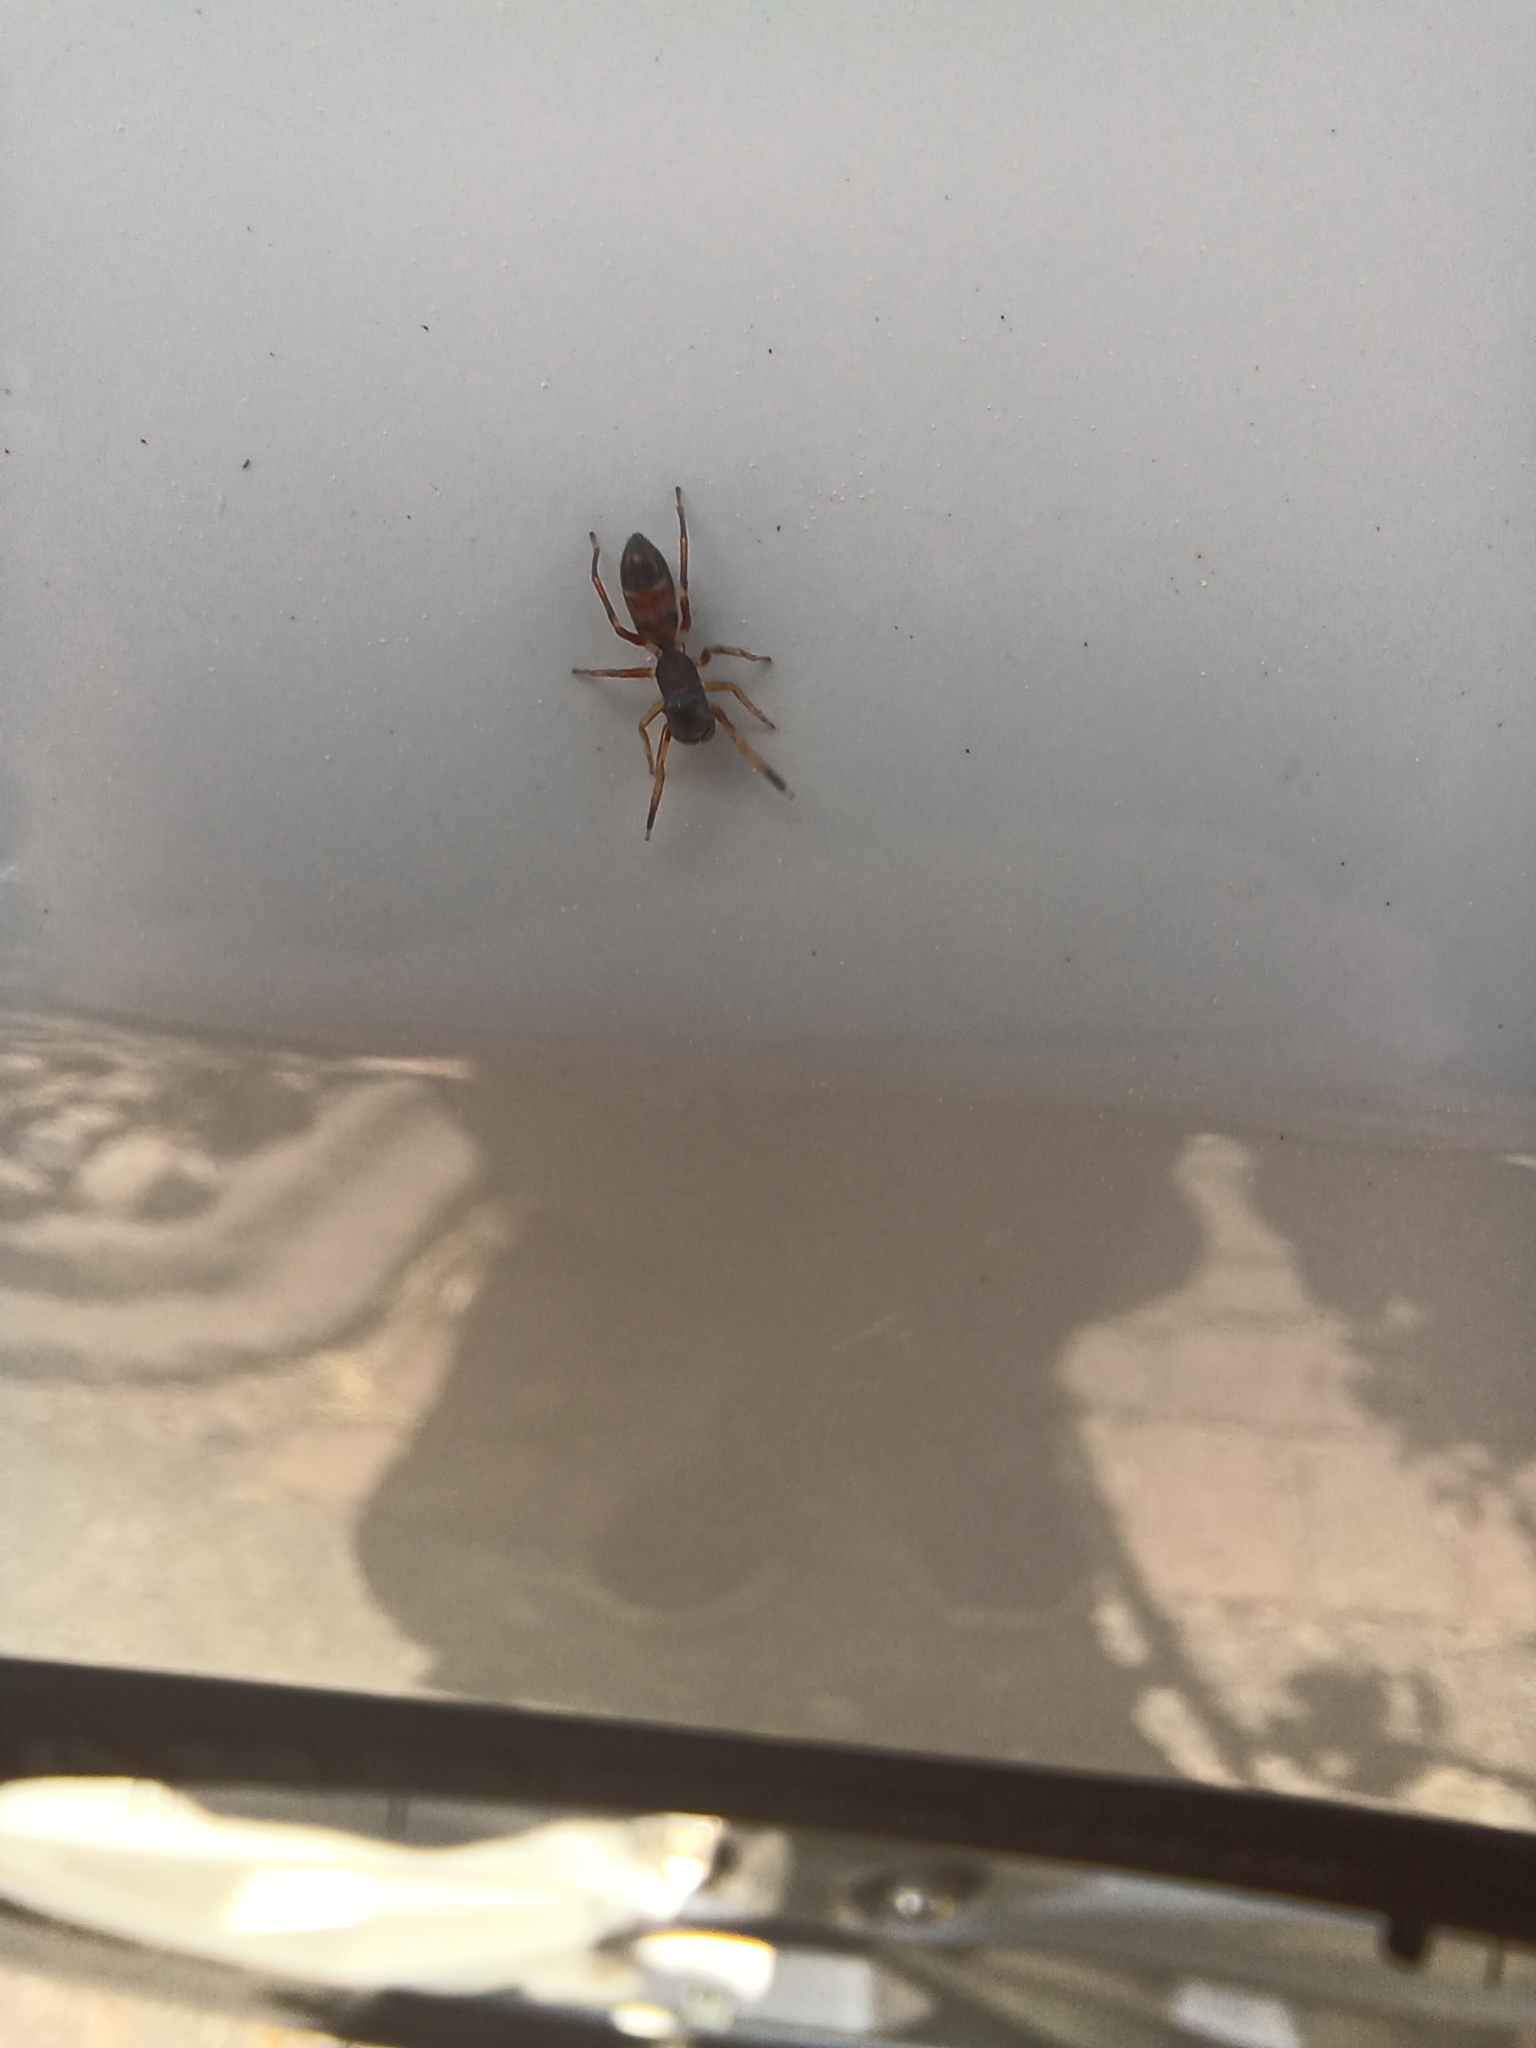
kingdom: Animalia
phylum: Arthropoda
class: Arachnida
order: Araneae
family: Salticidae
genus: Myrmarachne
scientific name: Myrmarachne formicaria
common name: Ant mimic jumping spider
